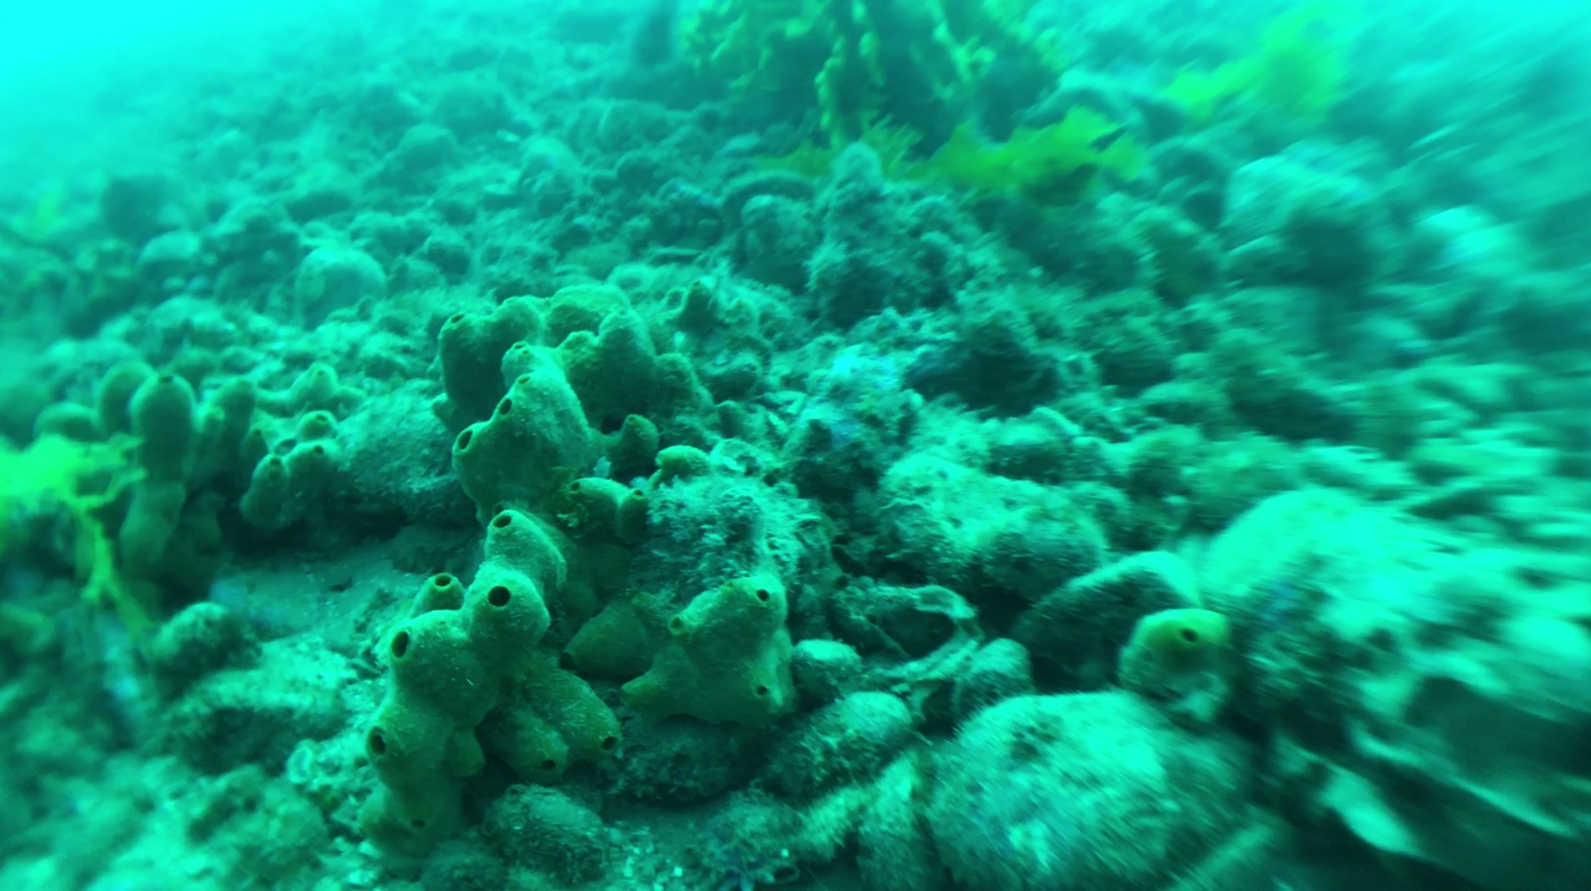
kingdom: Animalia
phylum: Porifera
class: Demospongiae
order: Poecilosclerida
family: Chondropsidae
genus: Chondropsis
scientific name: Chondropsis kirkii
